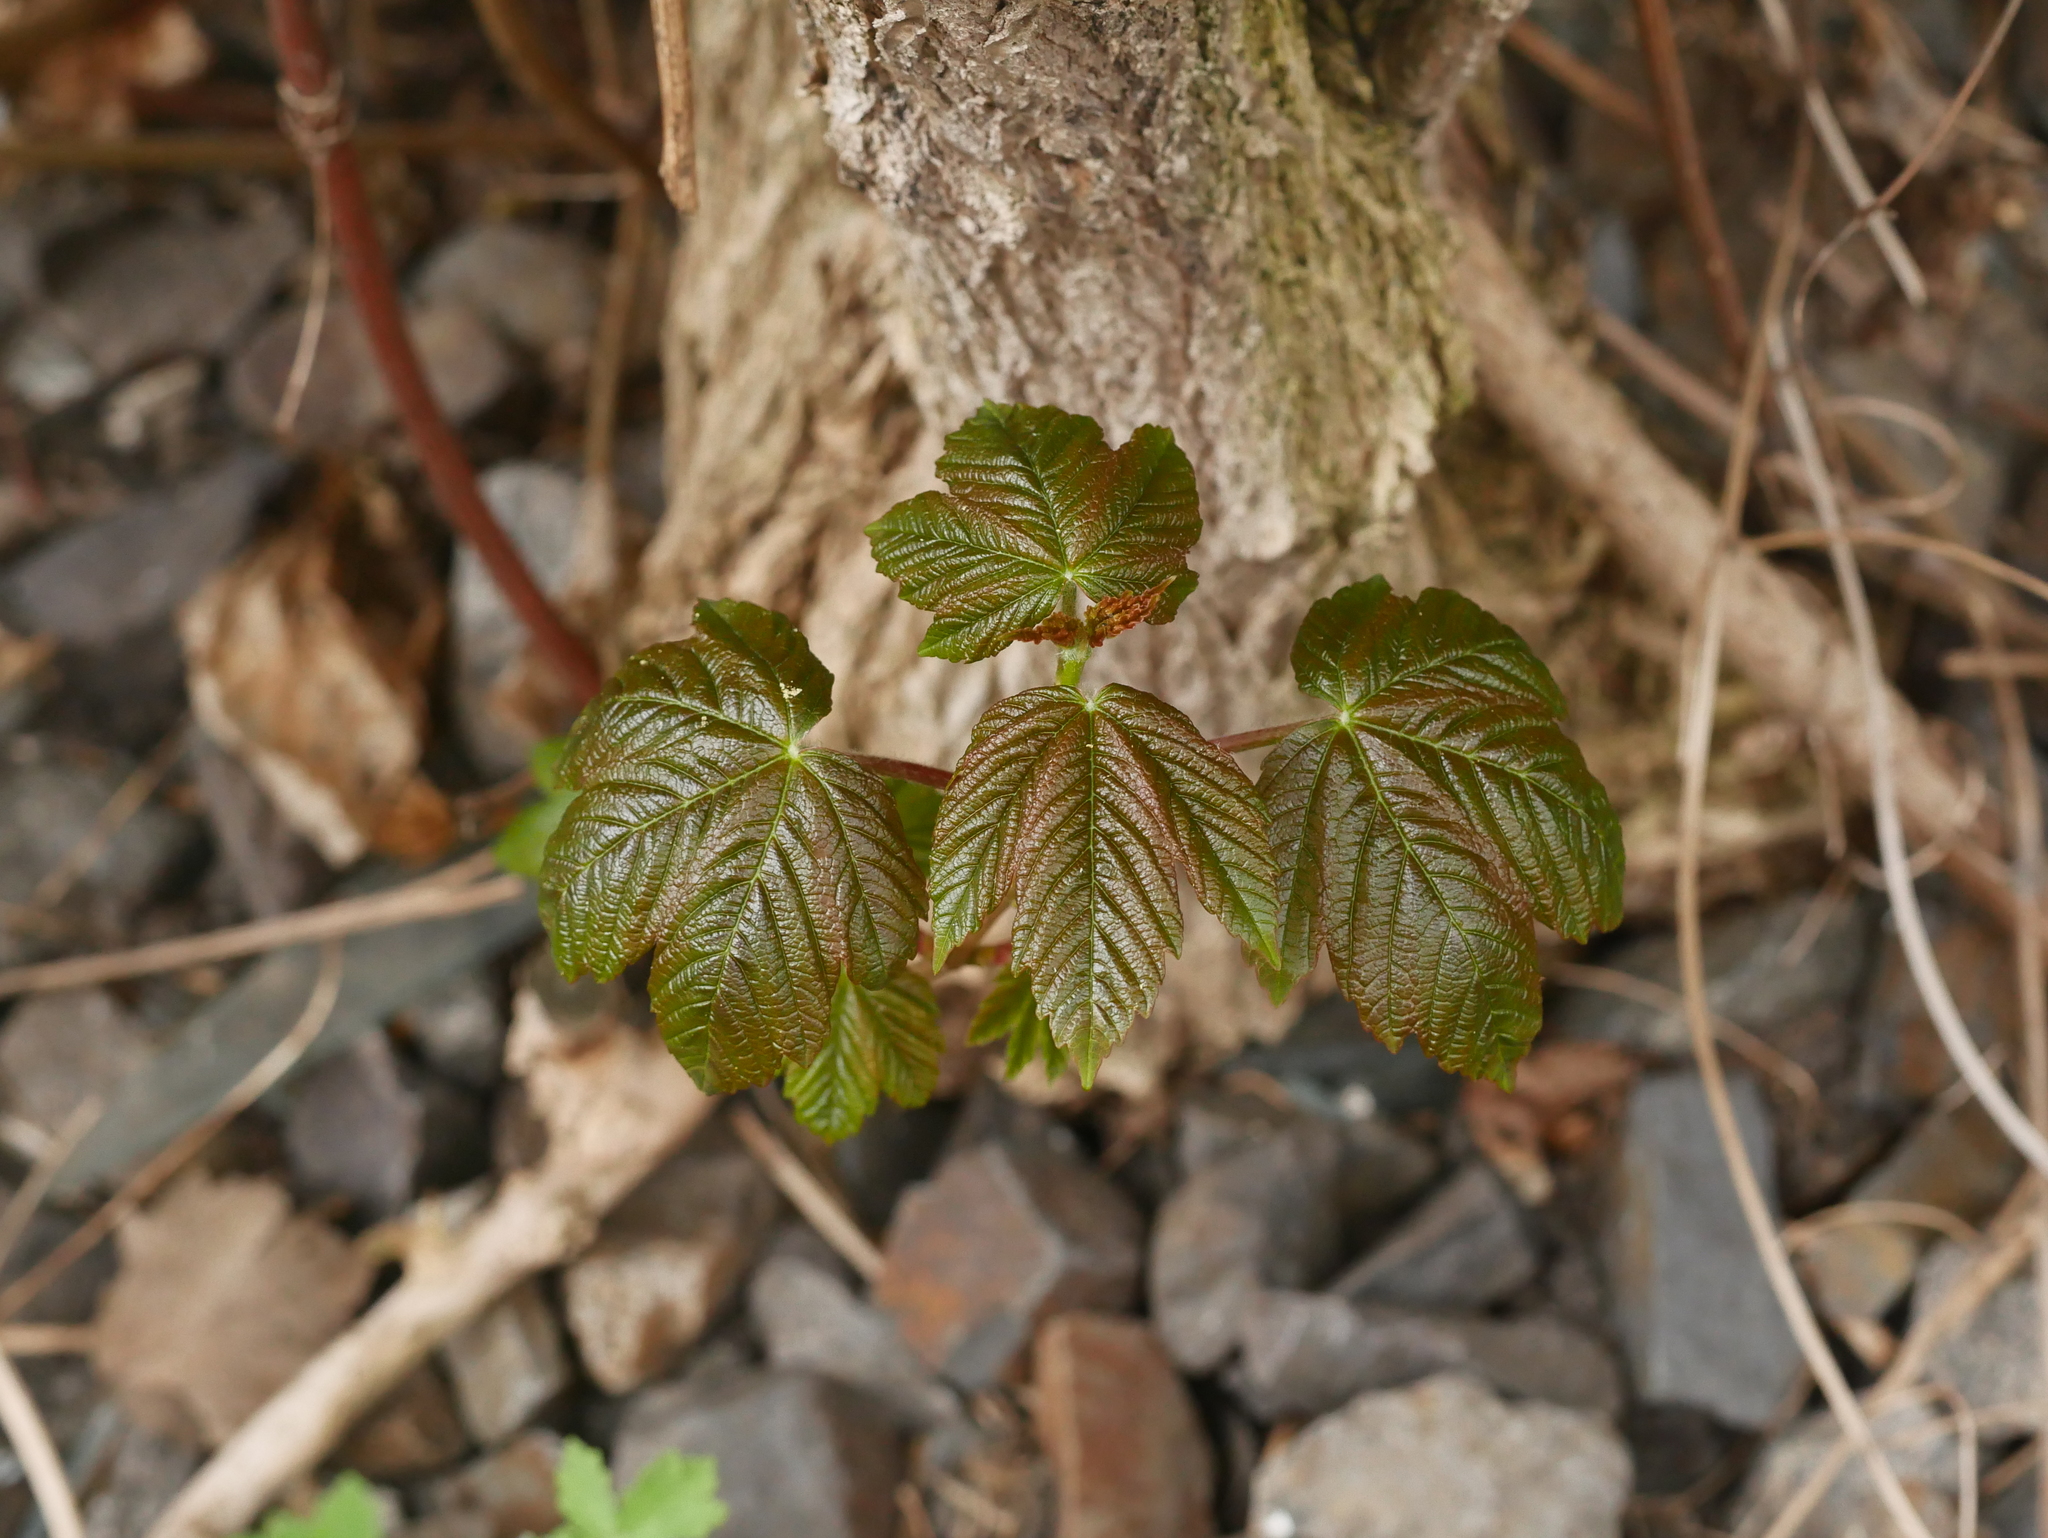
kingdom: Plantae
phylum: Tracheophyta
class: Magnoliopsida
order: Sapindales
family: Sapindaceae
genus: Acer
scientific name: Acer pseudoplatanus
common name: Sycamore
